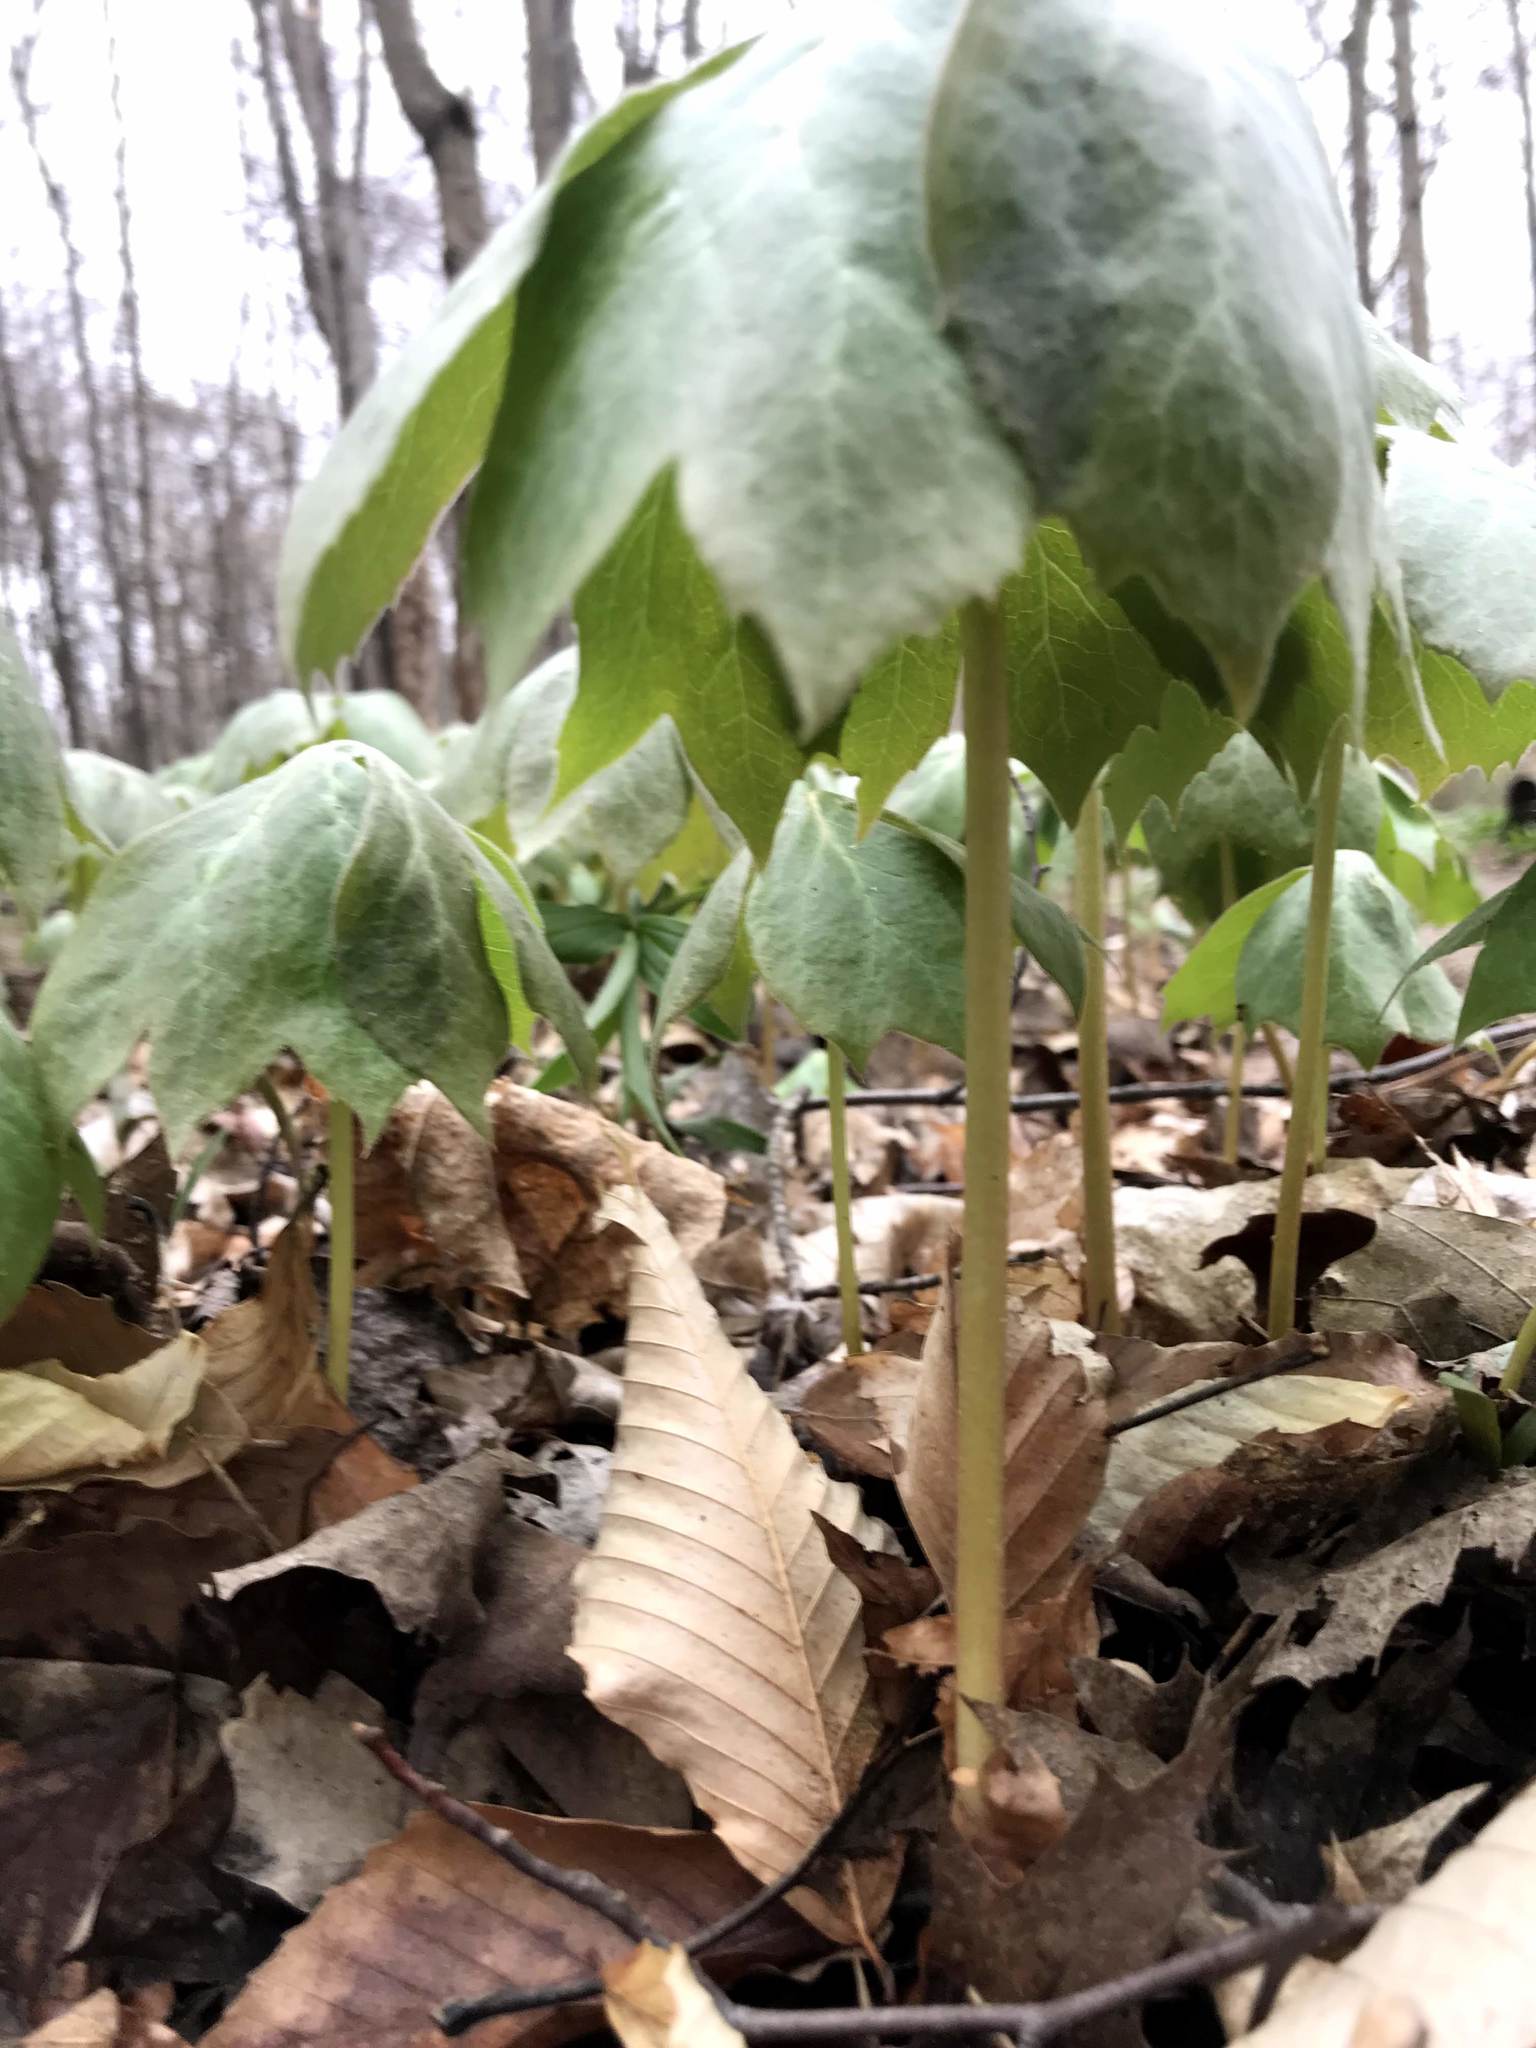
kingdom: Plantae
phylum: Tracheophyta
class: Magnoliopsida
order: Ranunculales
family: Berberidaceae
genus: Podophyllum
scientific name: Podophyllum peltatum
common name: Wild mandrake
